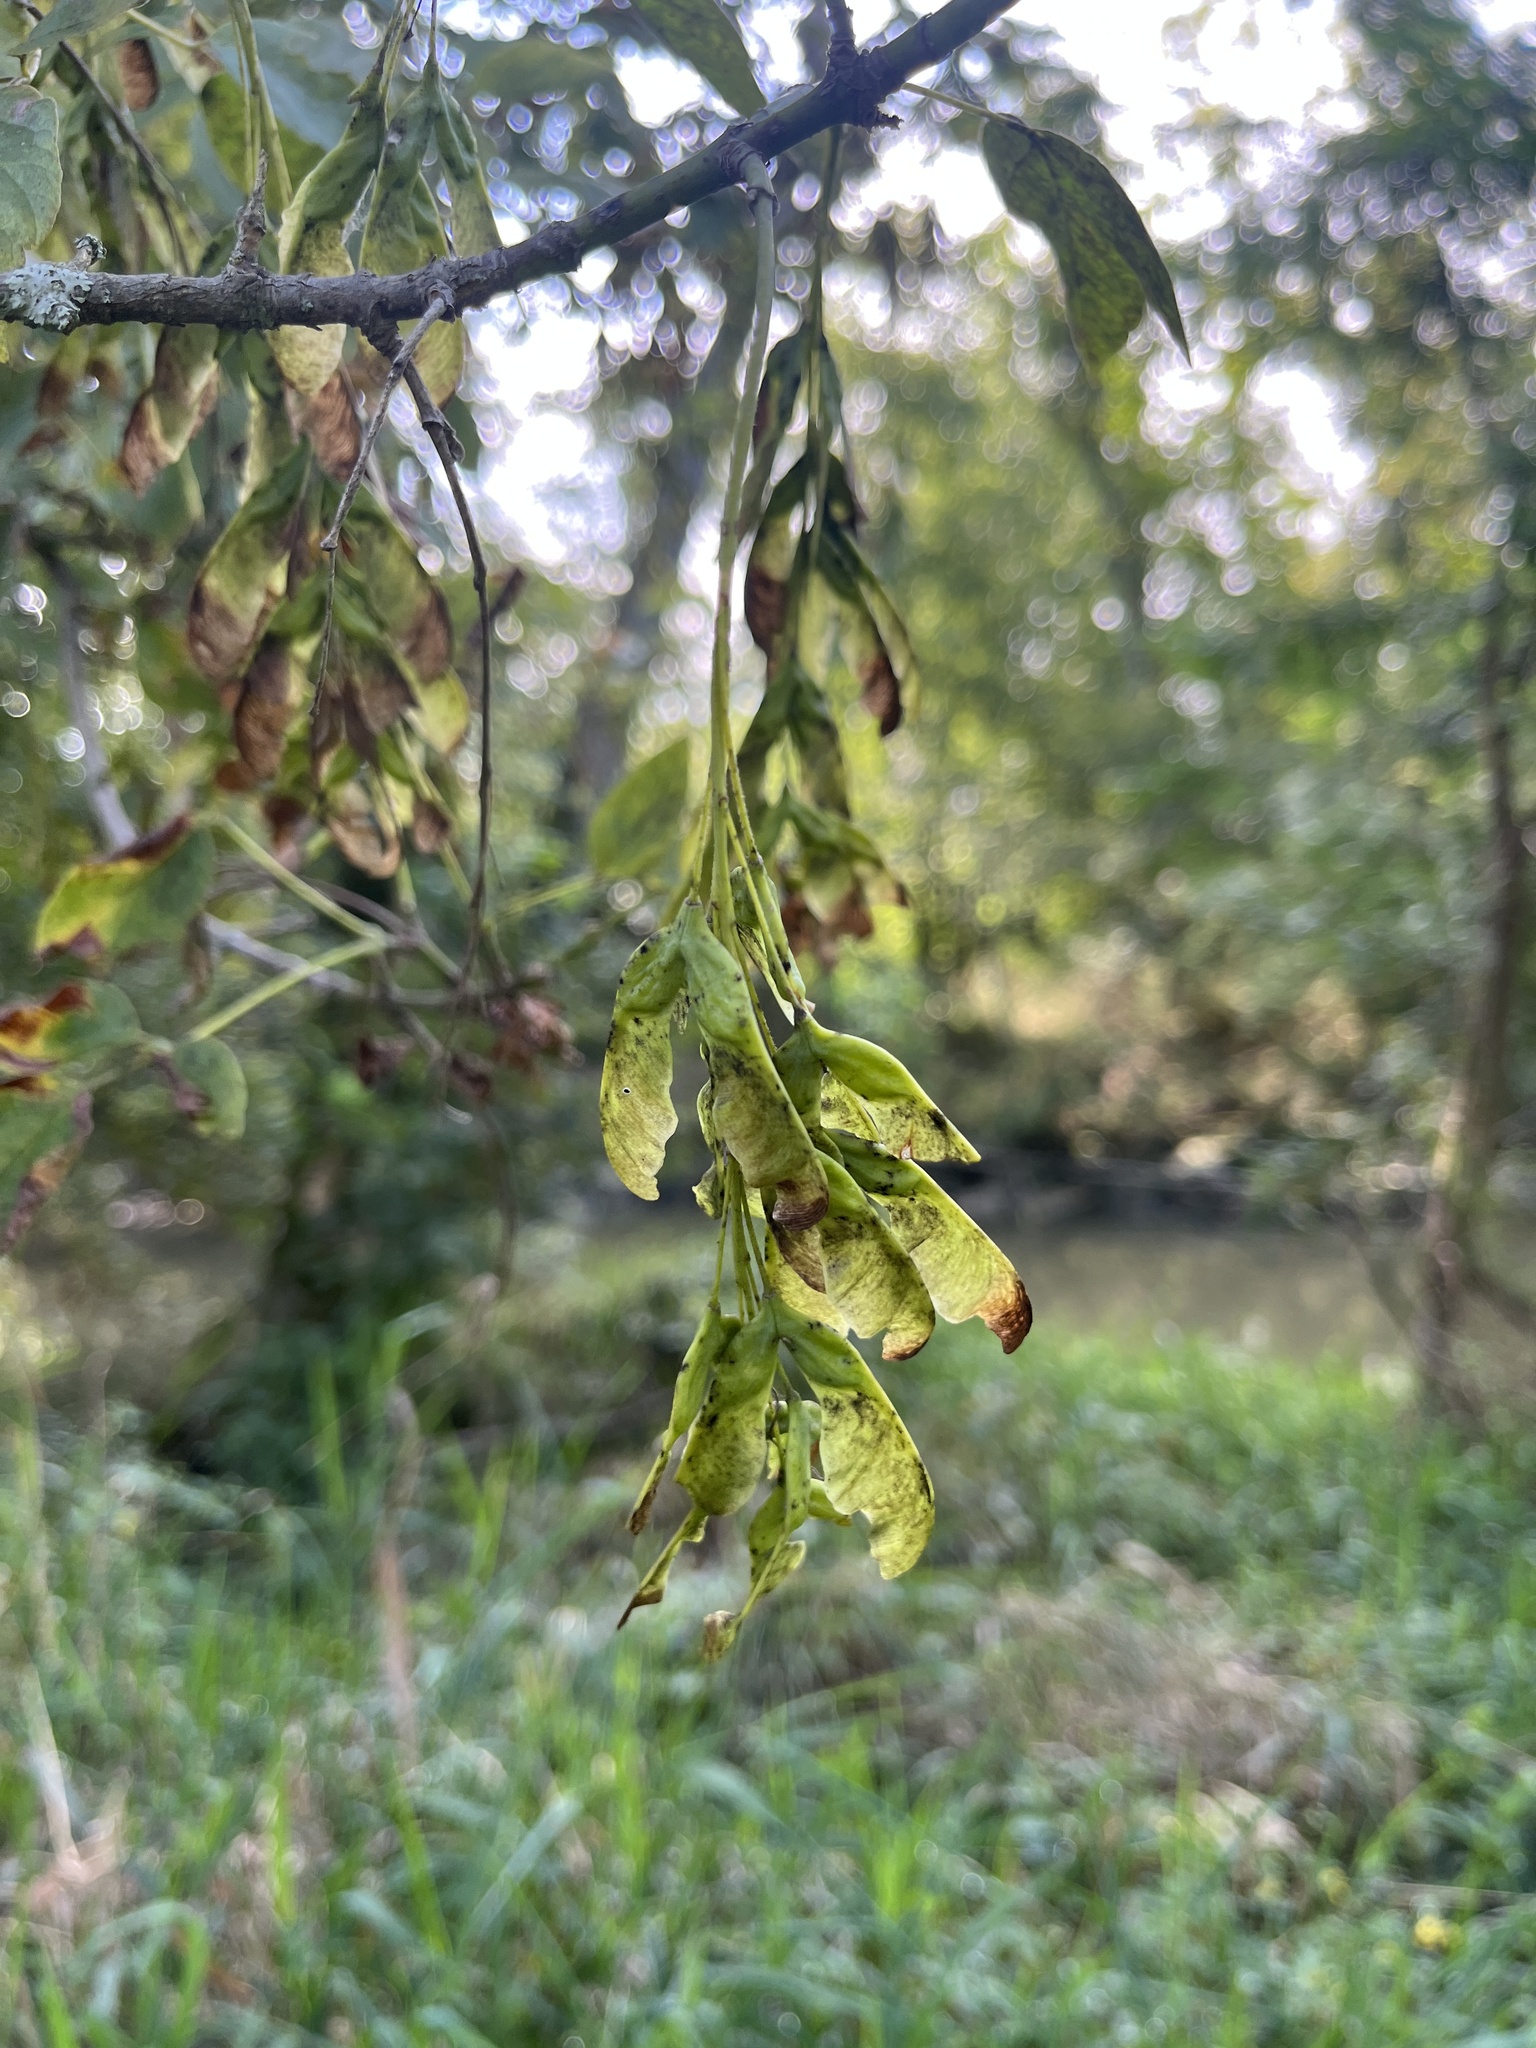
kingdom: Plantae
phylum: Tracheophyta
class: Magnoliopsida
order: Sapindales
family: Sapindaceae
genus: Acer
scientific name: Acer negundo
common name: Ashleaf maple
